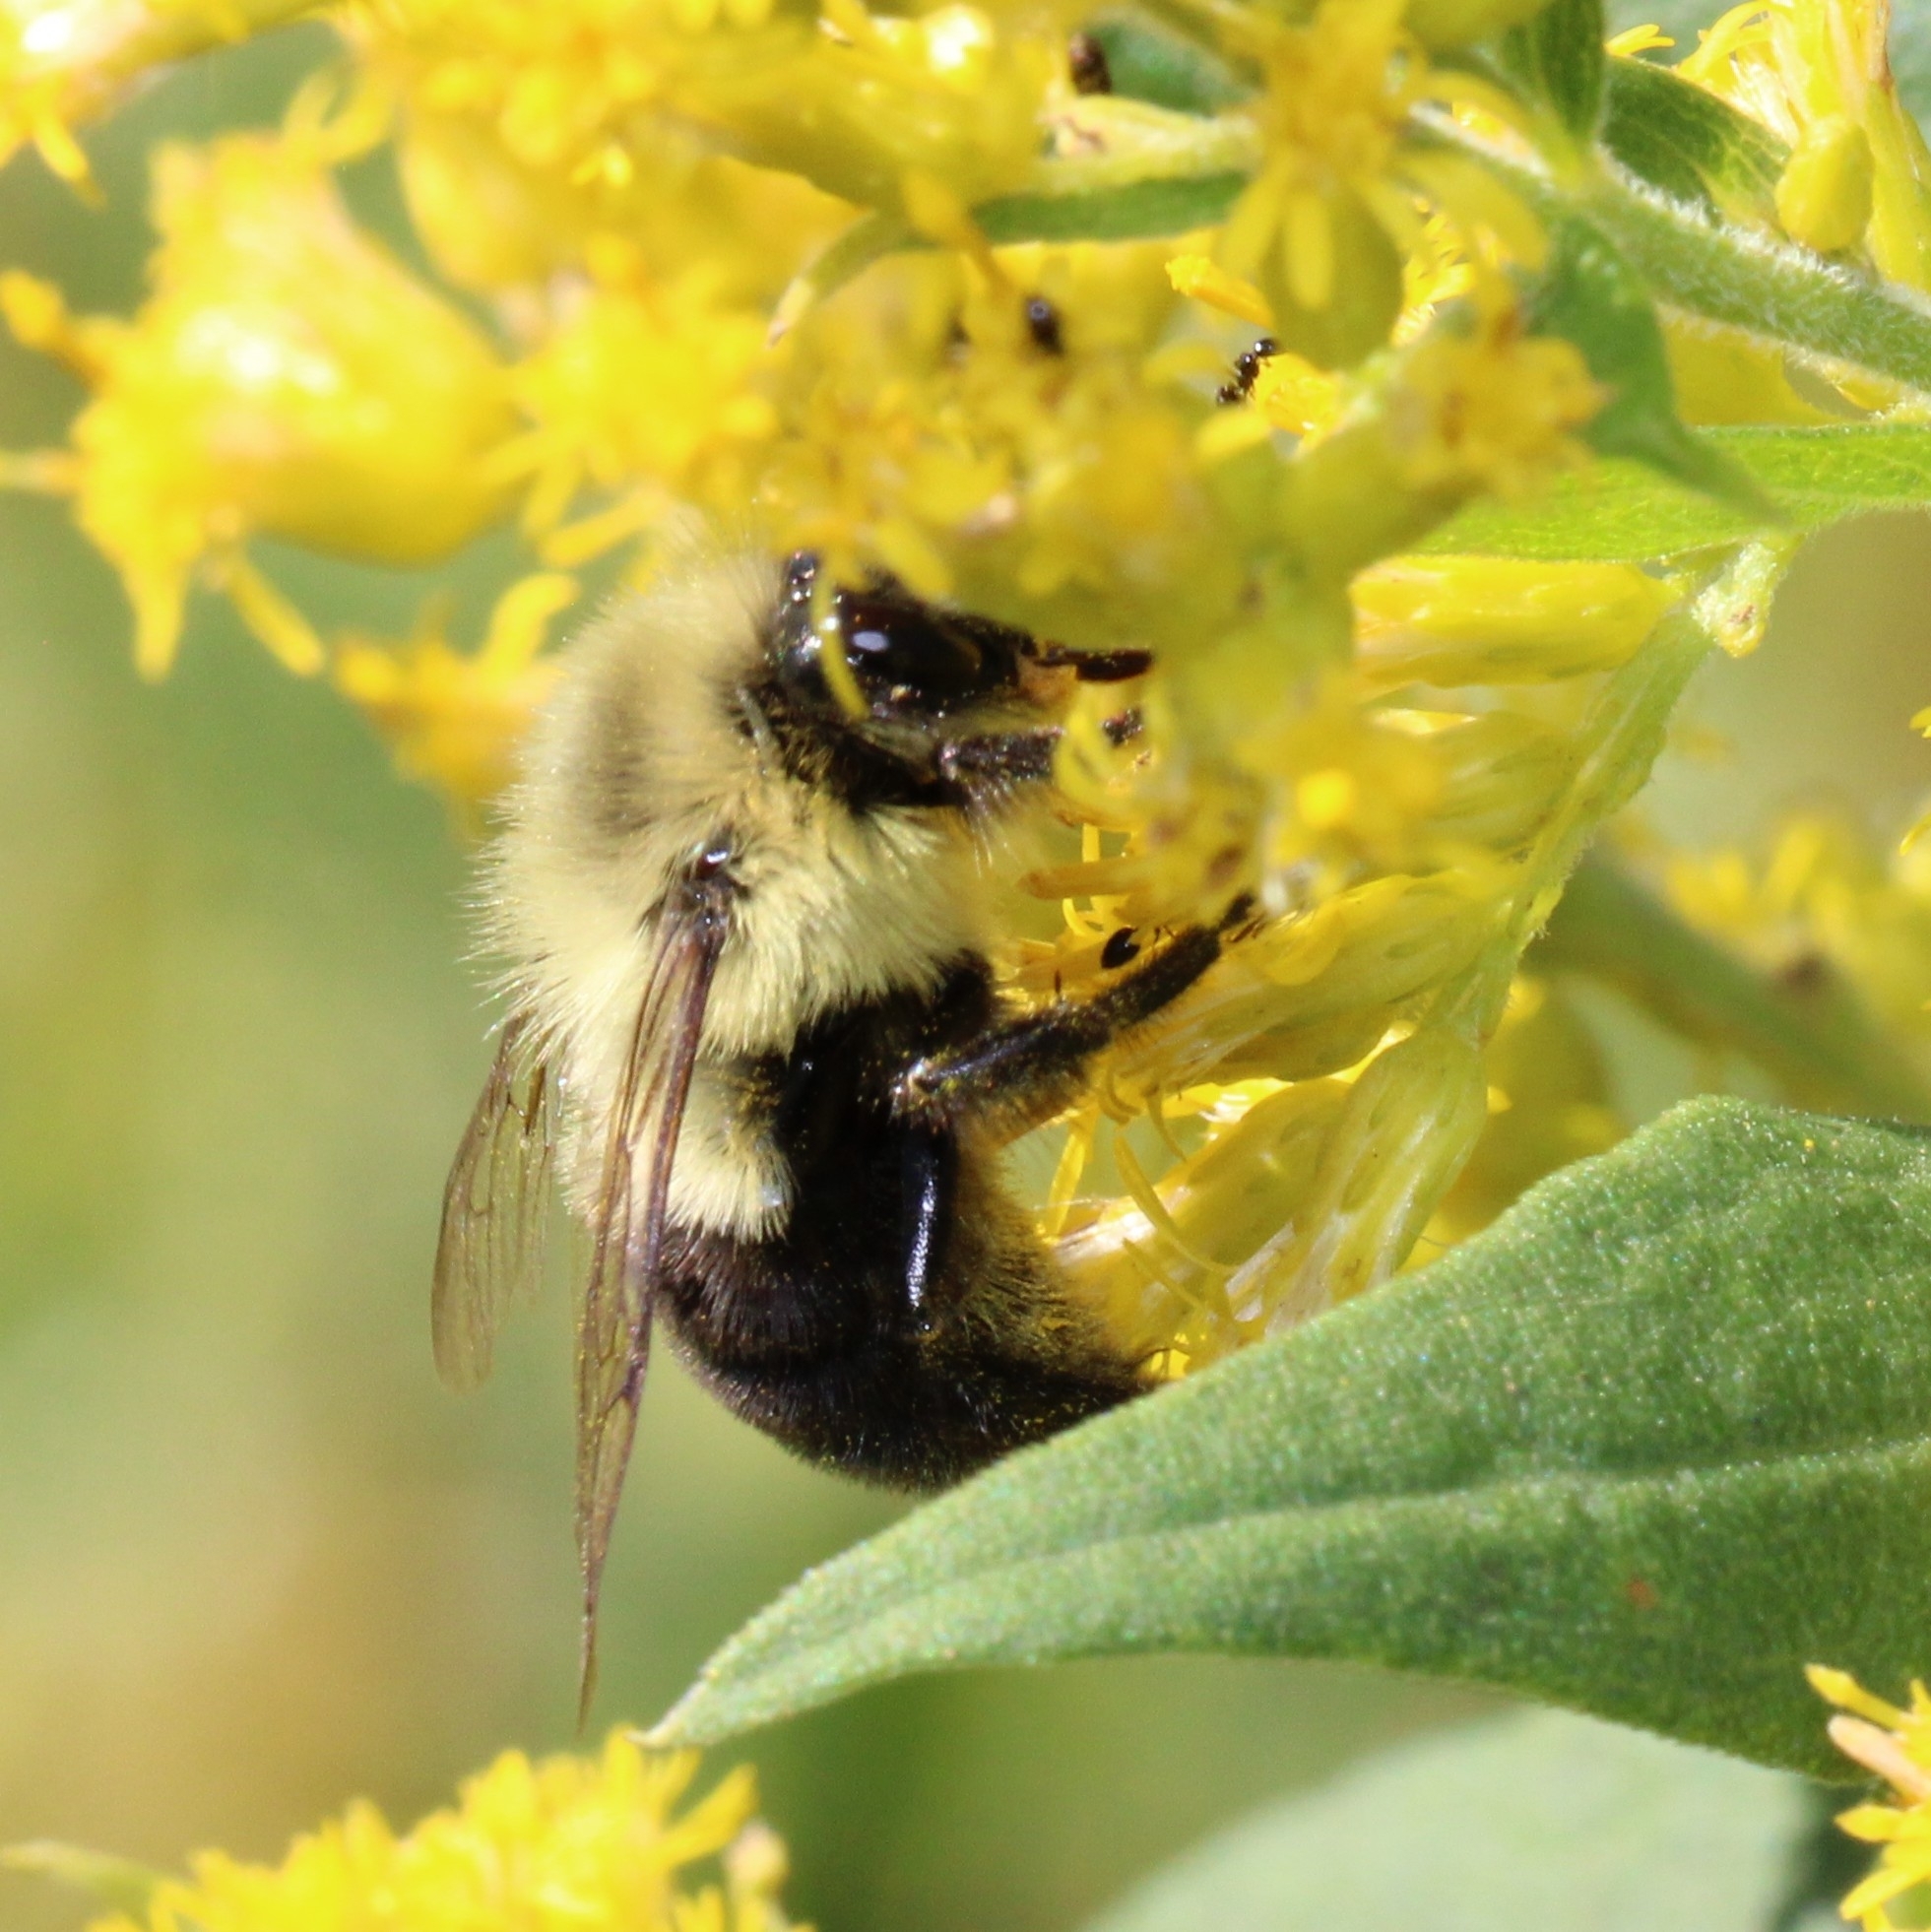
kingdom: Animalia
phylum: Arthropoda
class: Insecta
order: Hymenoptera
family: Apidae
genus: Bombus
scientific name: Bombus impatiens
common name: Common eastern bumble bee
